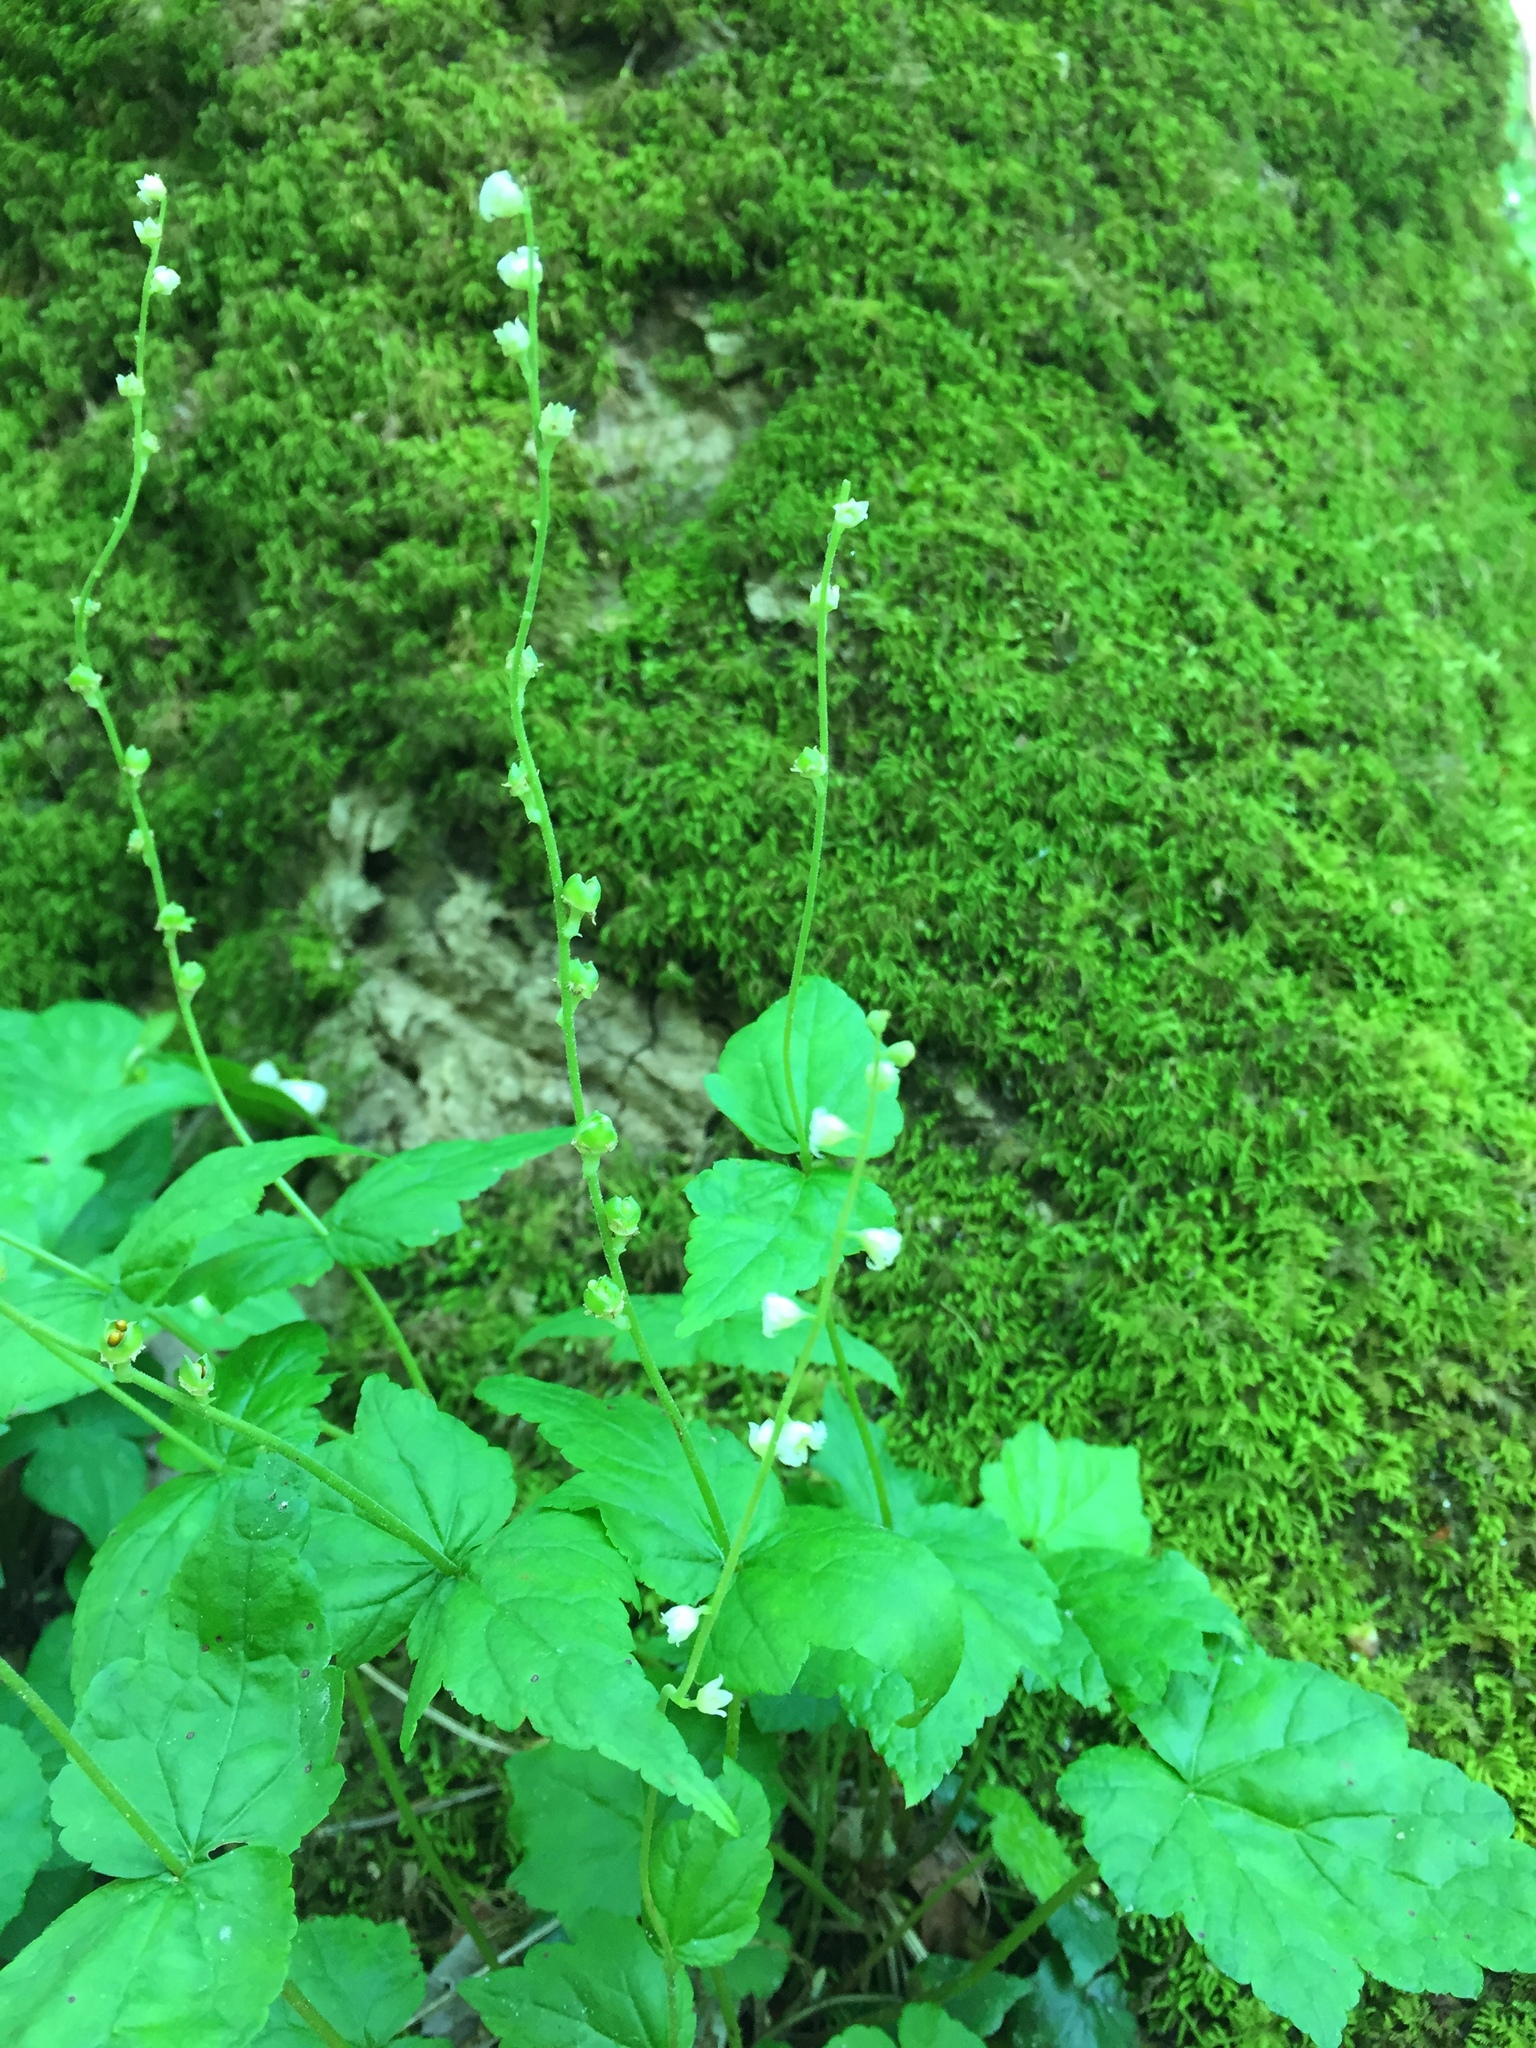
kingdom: Plantae
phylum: Tracheophyta
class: Magnoliopsida
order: Saxifragales
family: Saxifragaceae
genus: Mitella
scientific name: Mitella diphylla
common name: Coolwort
